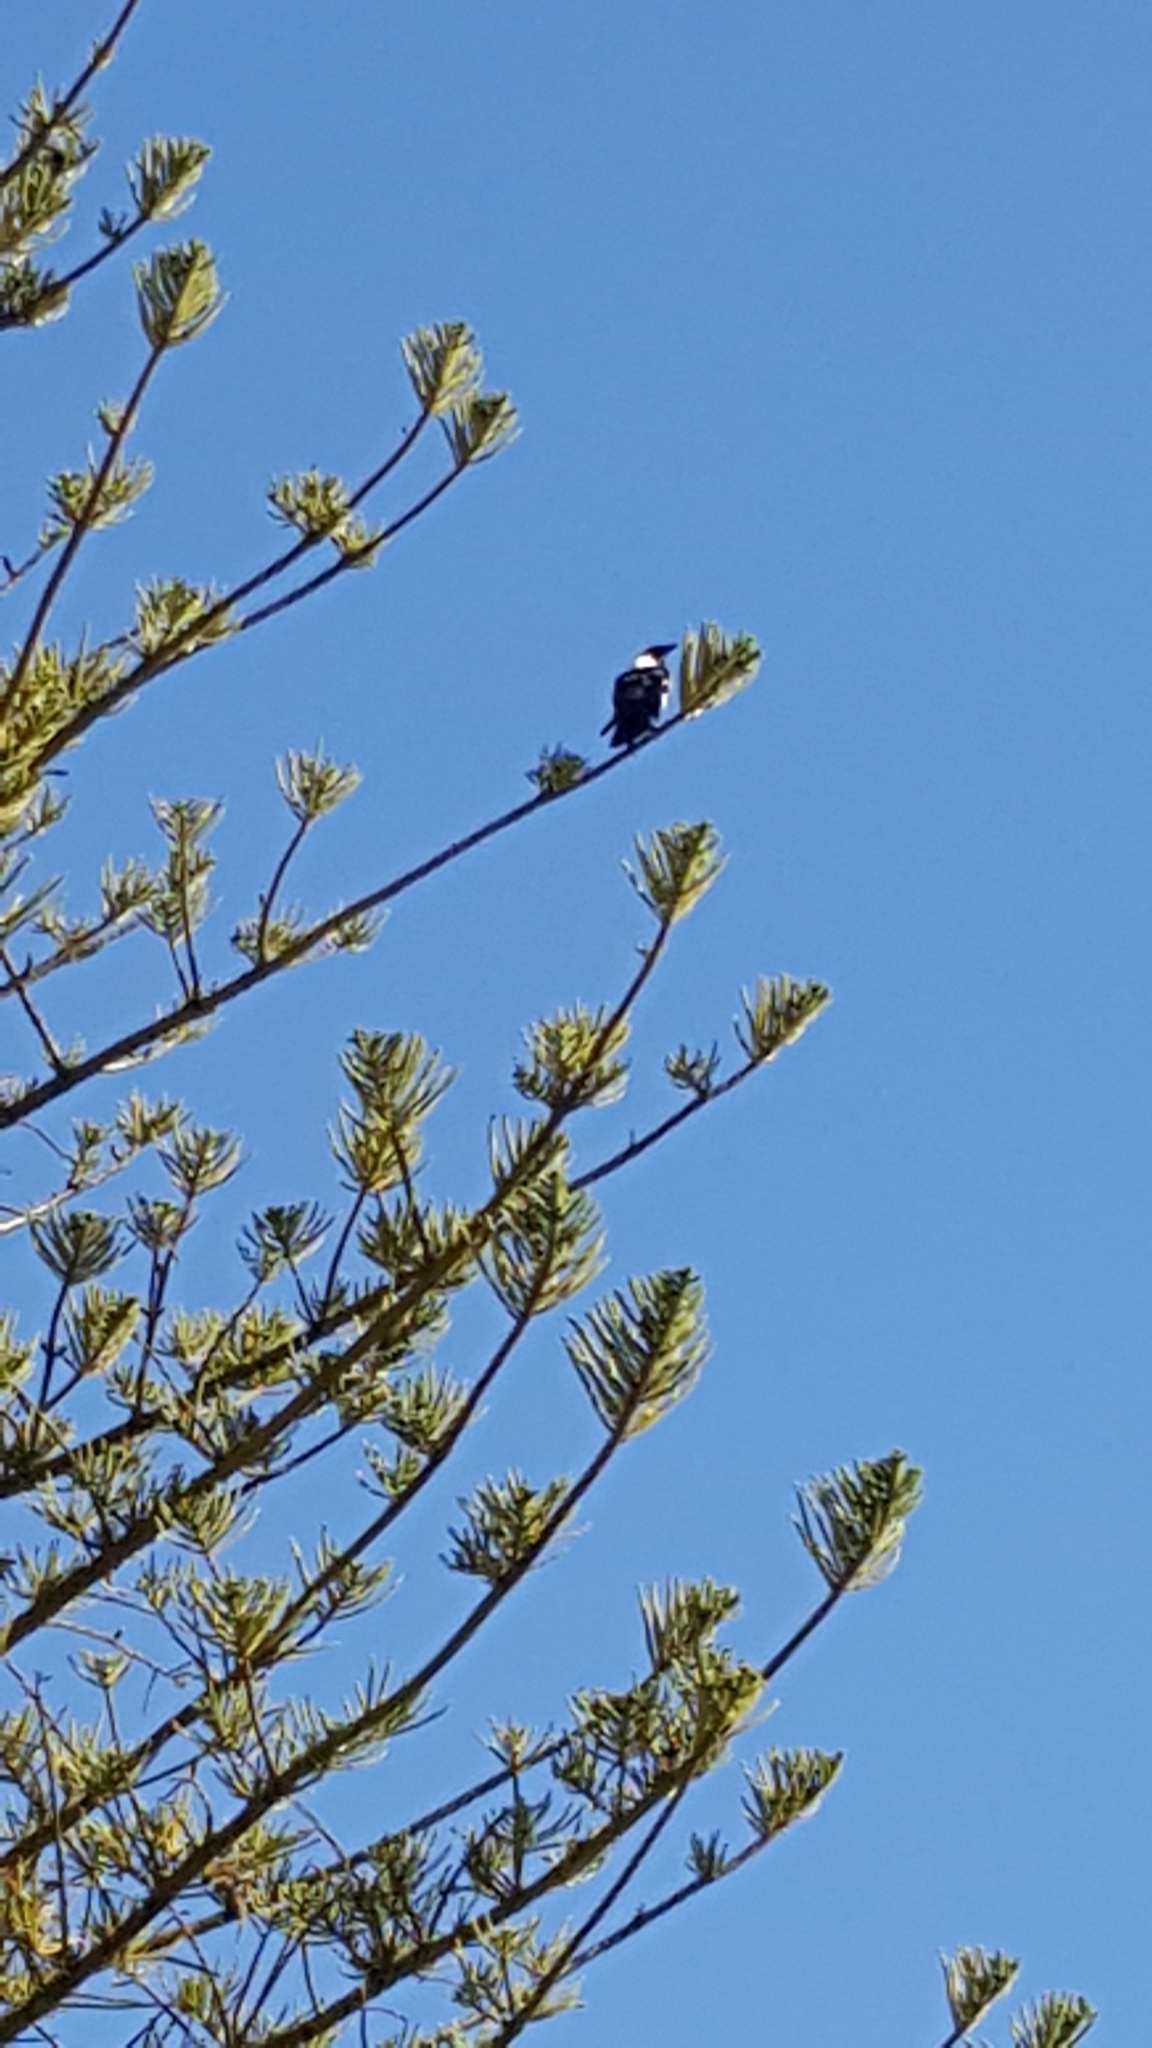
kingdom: Animalia
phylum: Chordata
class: Aves
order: Passeriformes
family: Corvidae
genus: Corvus
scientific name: Corvus albus
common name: Pied crow
